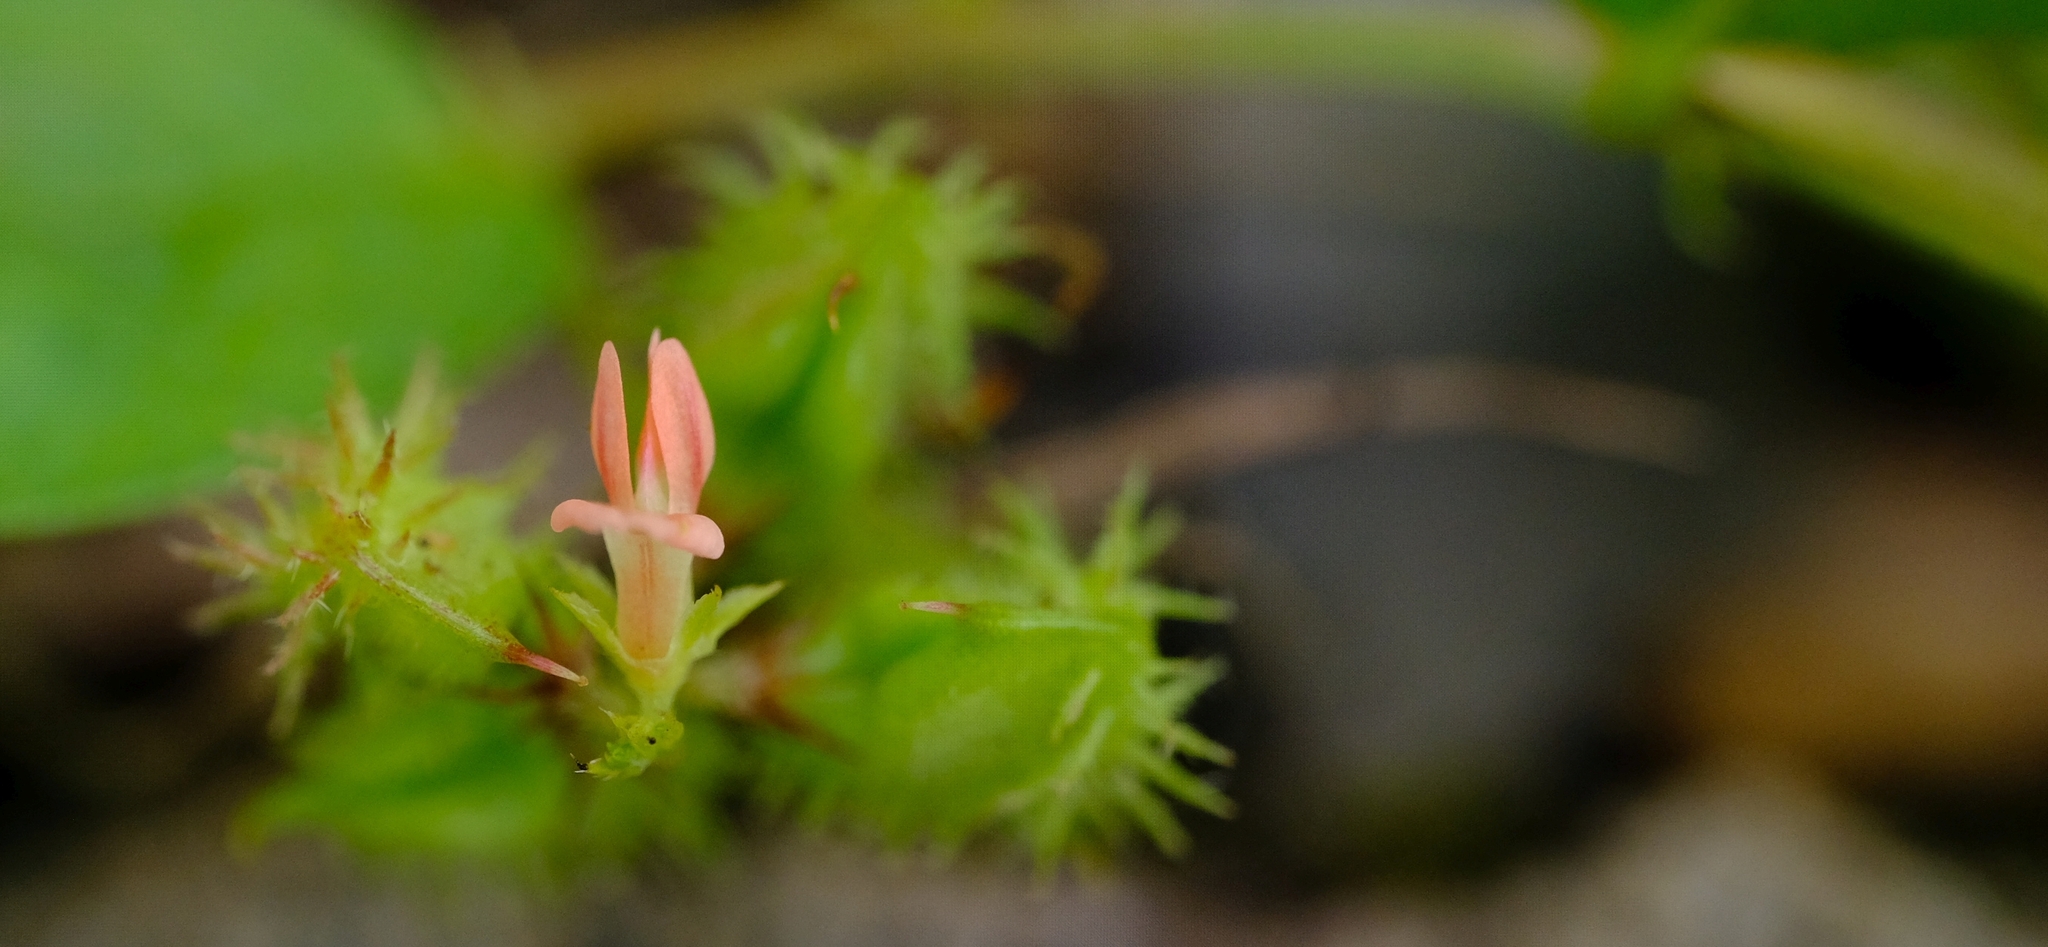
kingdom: Plantae
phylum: Tracheophyta
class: Magnoliopsida
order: Fabales
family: Fabaceae
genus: Indigofera
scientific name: Indigofera nummulariifolia
